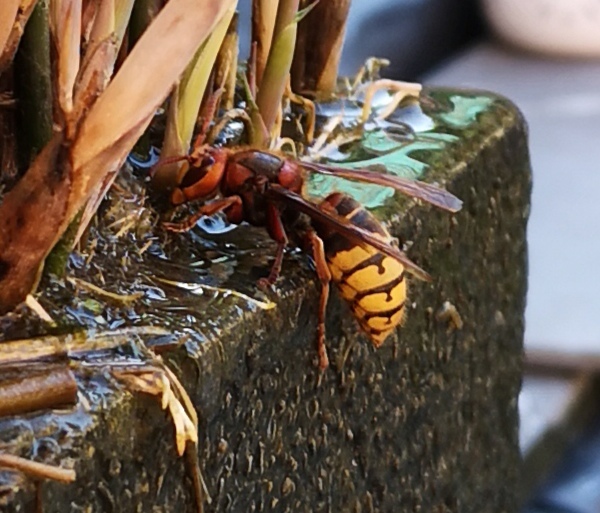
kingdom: Animalia
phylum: Arthropoda
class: Insecta
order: Hymenoptera
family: Vespidae
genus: Vespa
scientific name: Vespa crabro
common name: Hornet
